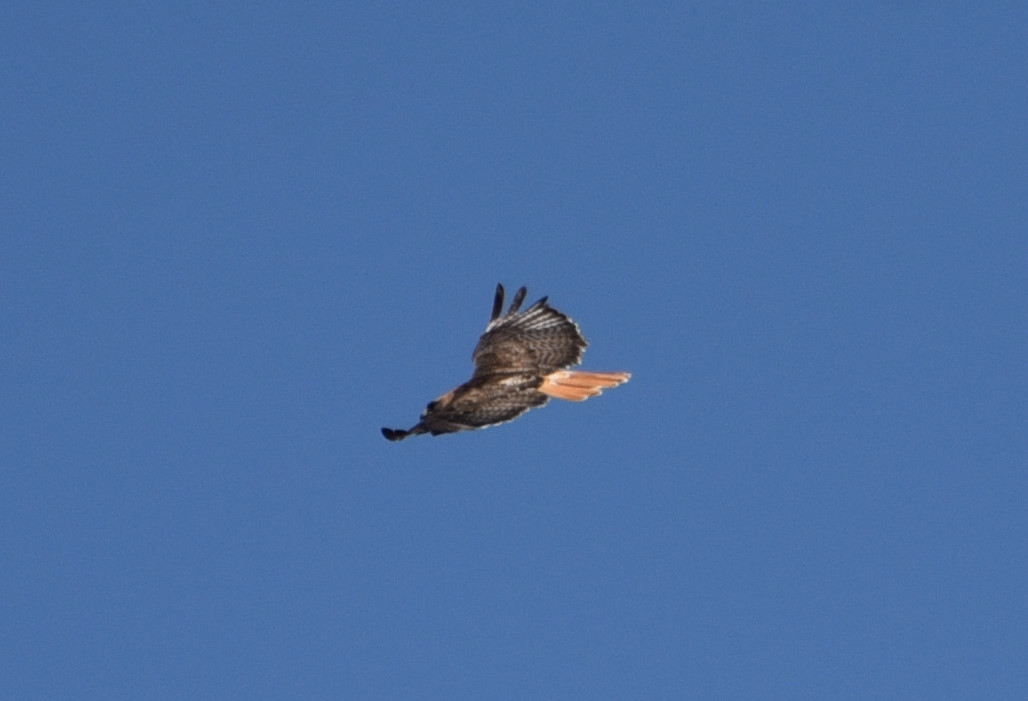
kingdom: Animalia
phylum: Chordata
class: Aves
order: Accipitriformes
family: Accipitridae
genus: Buteo
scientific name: Buteo jamaicensis
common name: Red-tailed hawk
